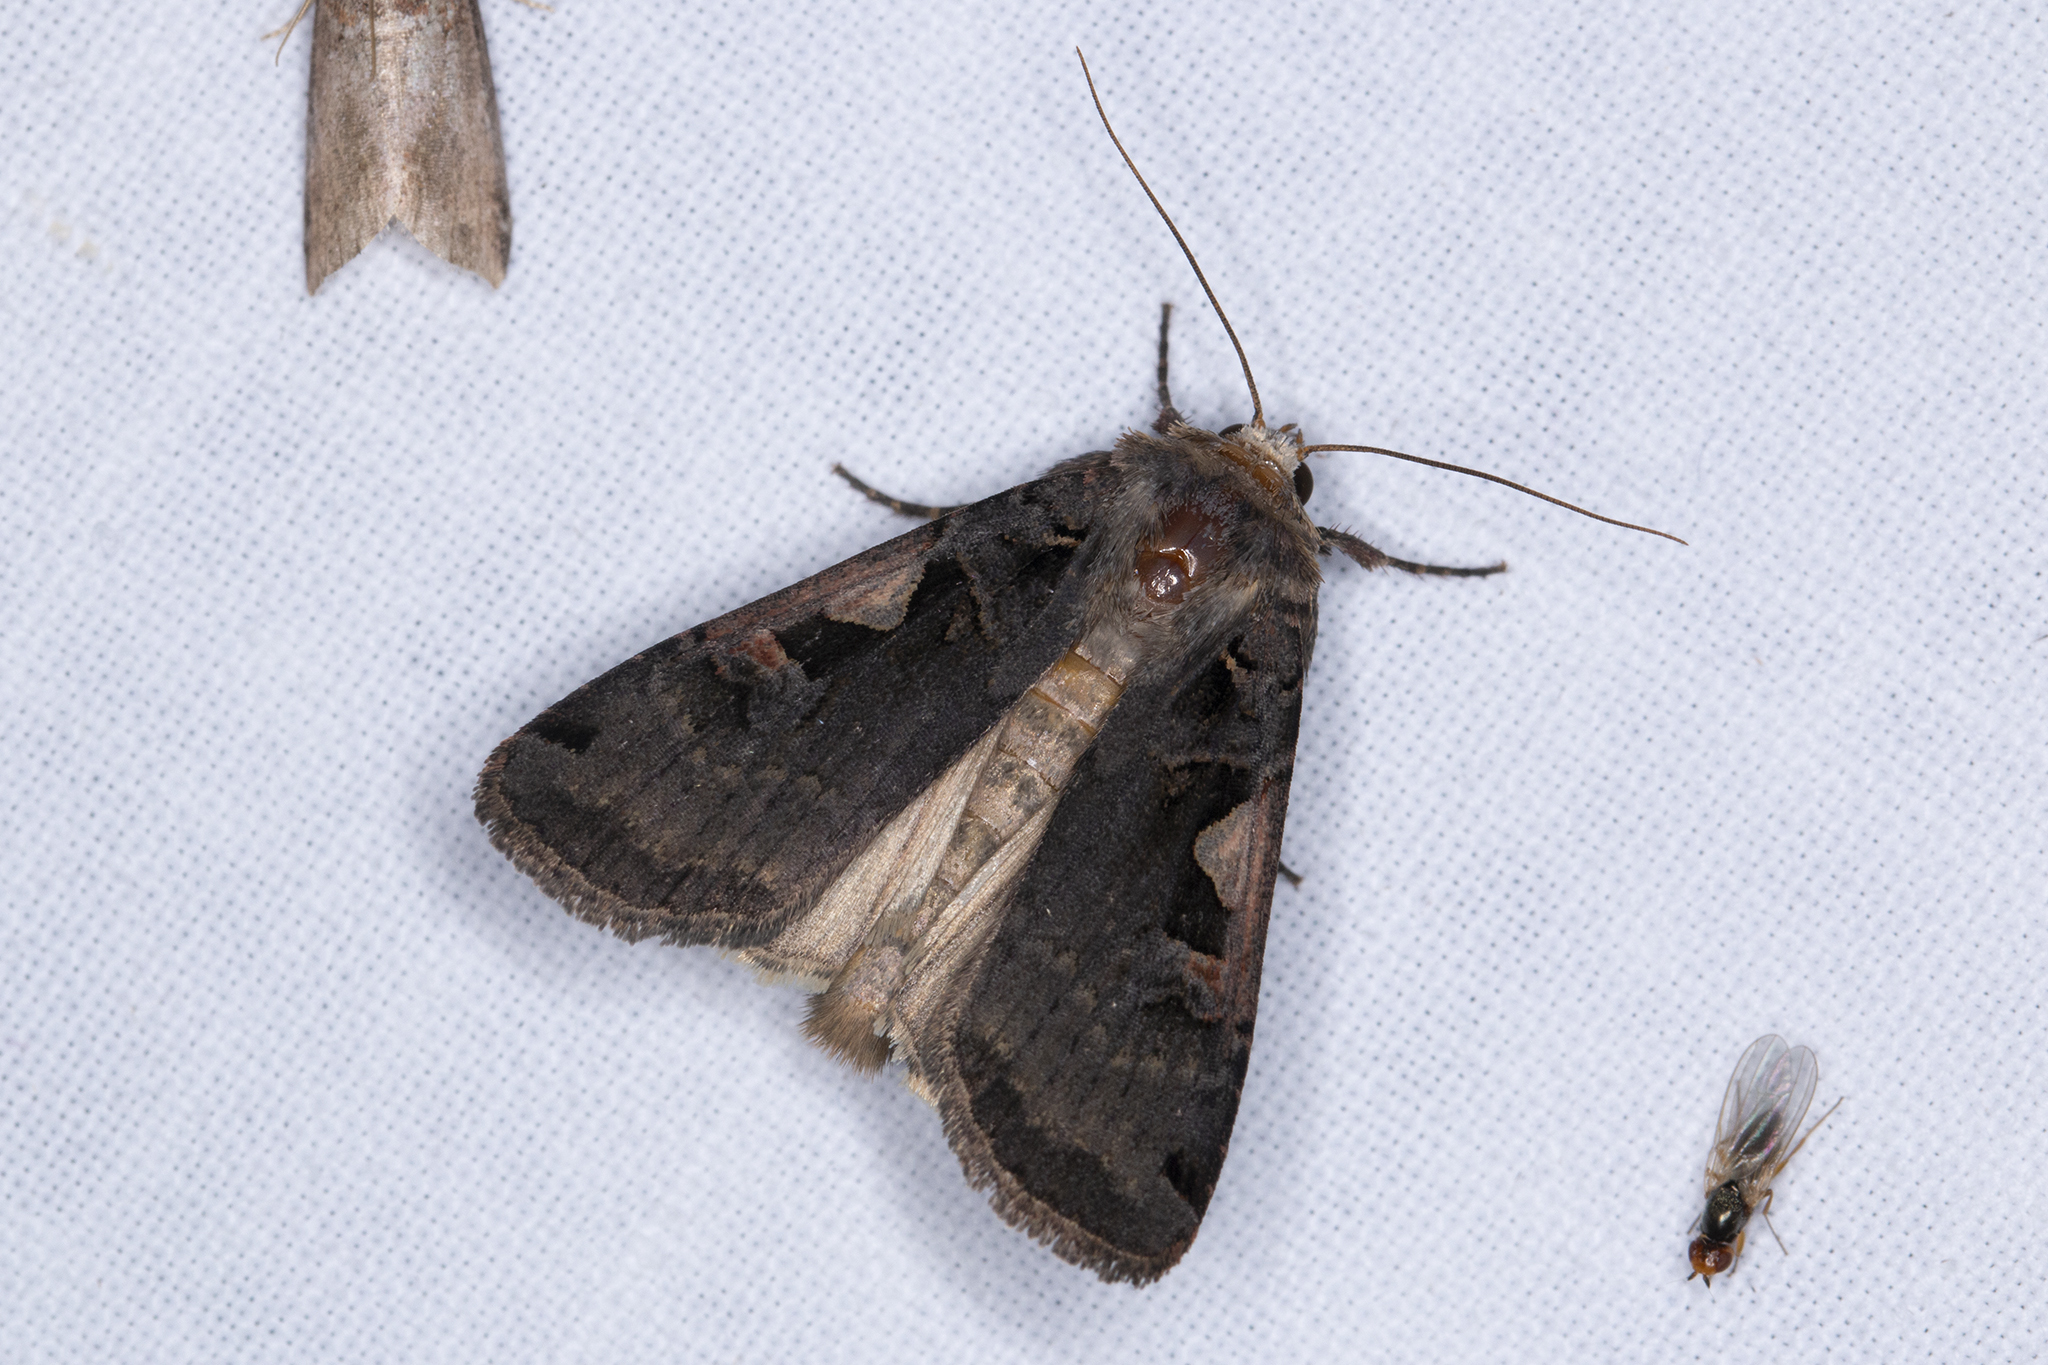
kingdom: Animalia
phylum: Arthropoda
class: Insecta
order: Lepidoptera
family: Noctuidae
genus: Xestia
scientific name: Xestia c-nigrum
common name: Setaceous hebrew character
